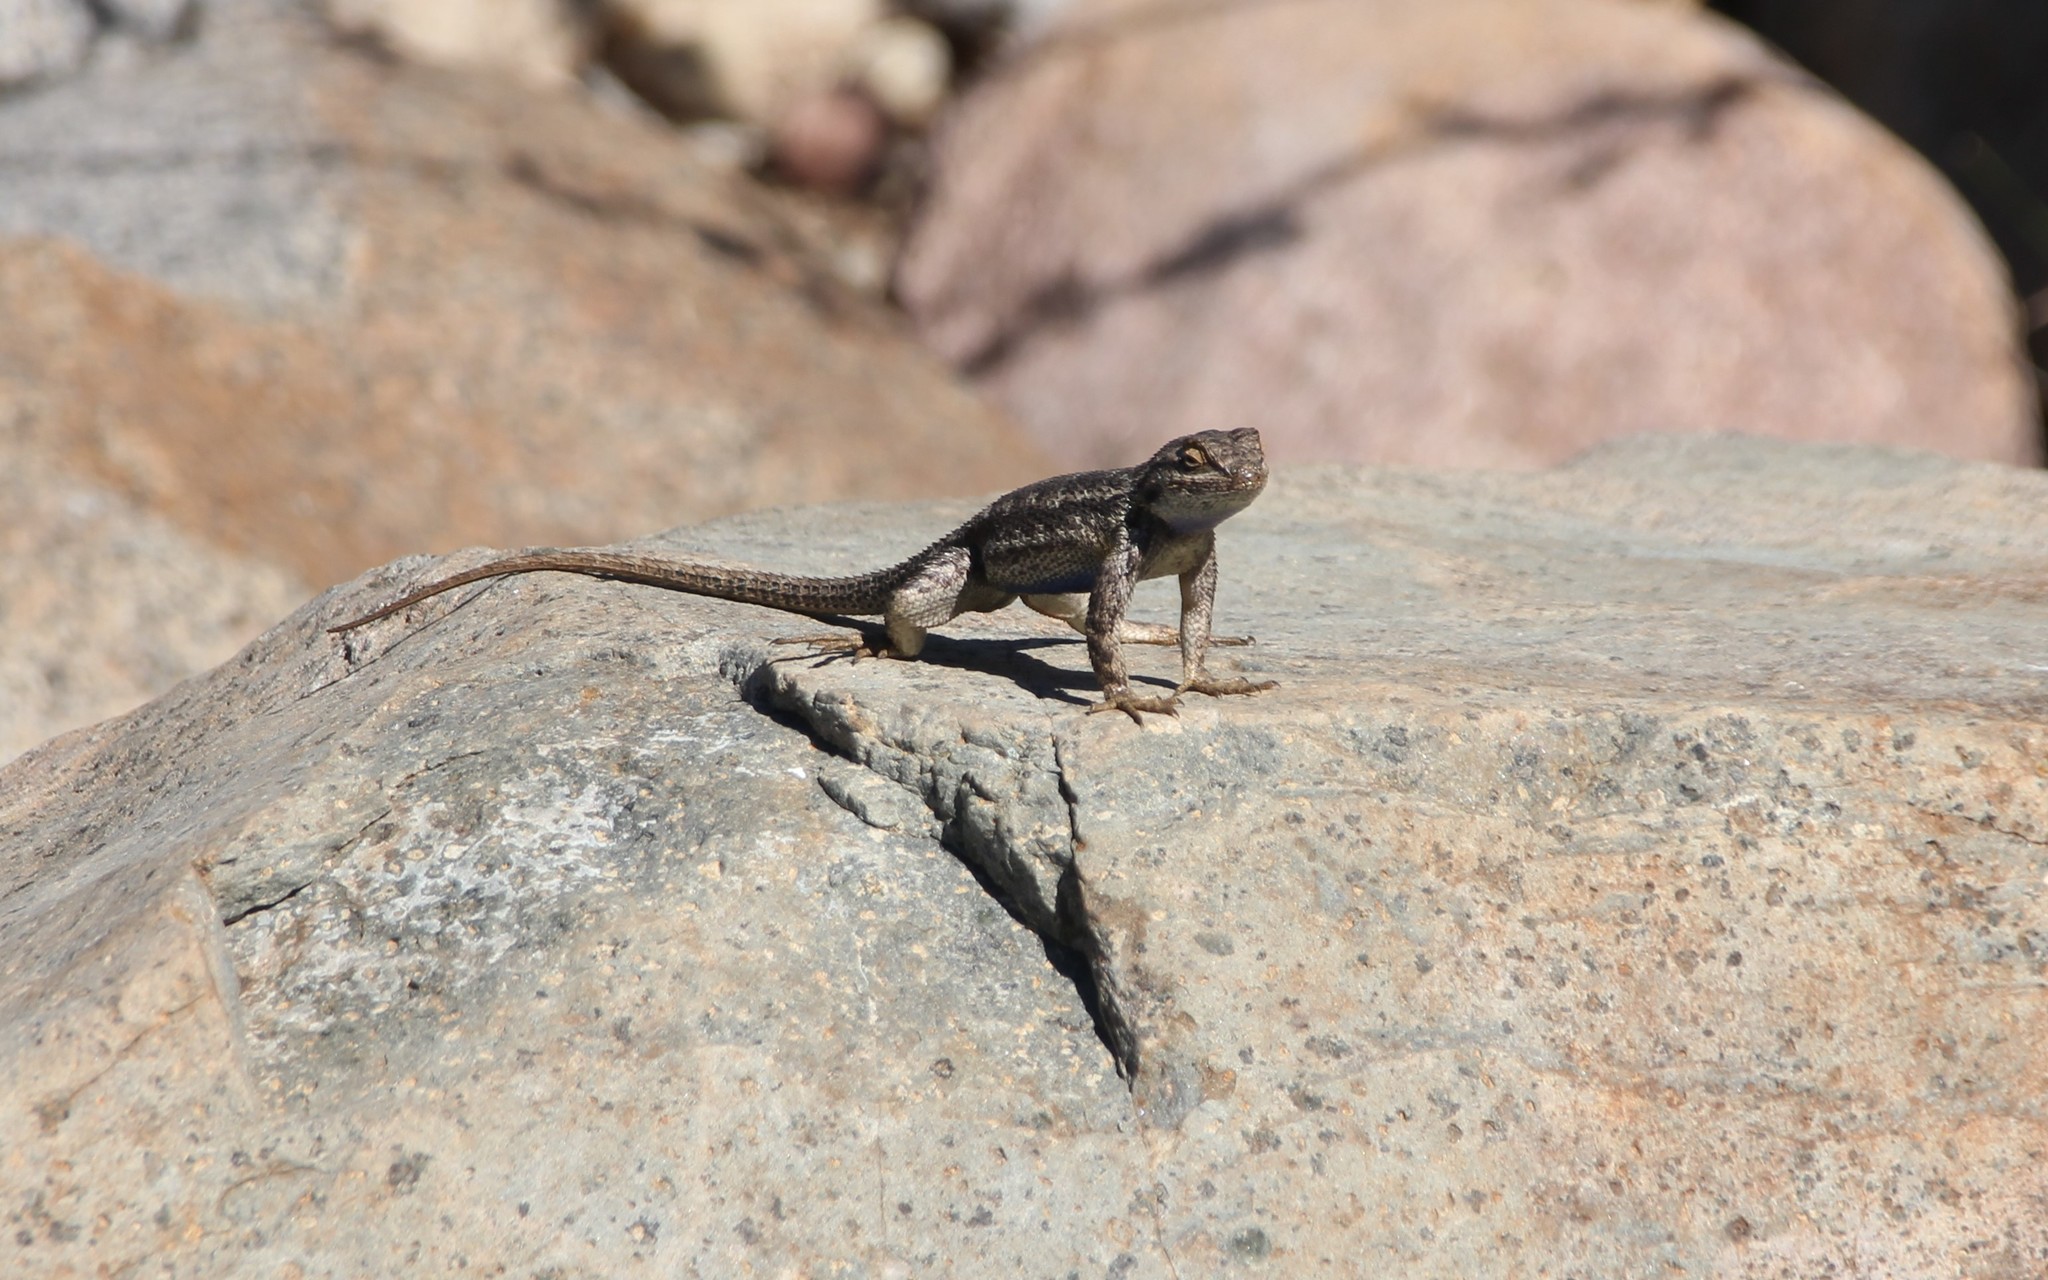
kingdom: Animalia
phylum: Chordata
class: Squamata
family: Phrynosomatidae
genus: Sceloporus
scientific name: Sceloporus occidentalis
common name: Western fence lizard
